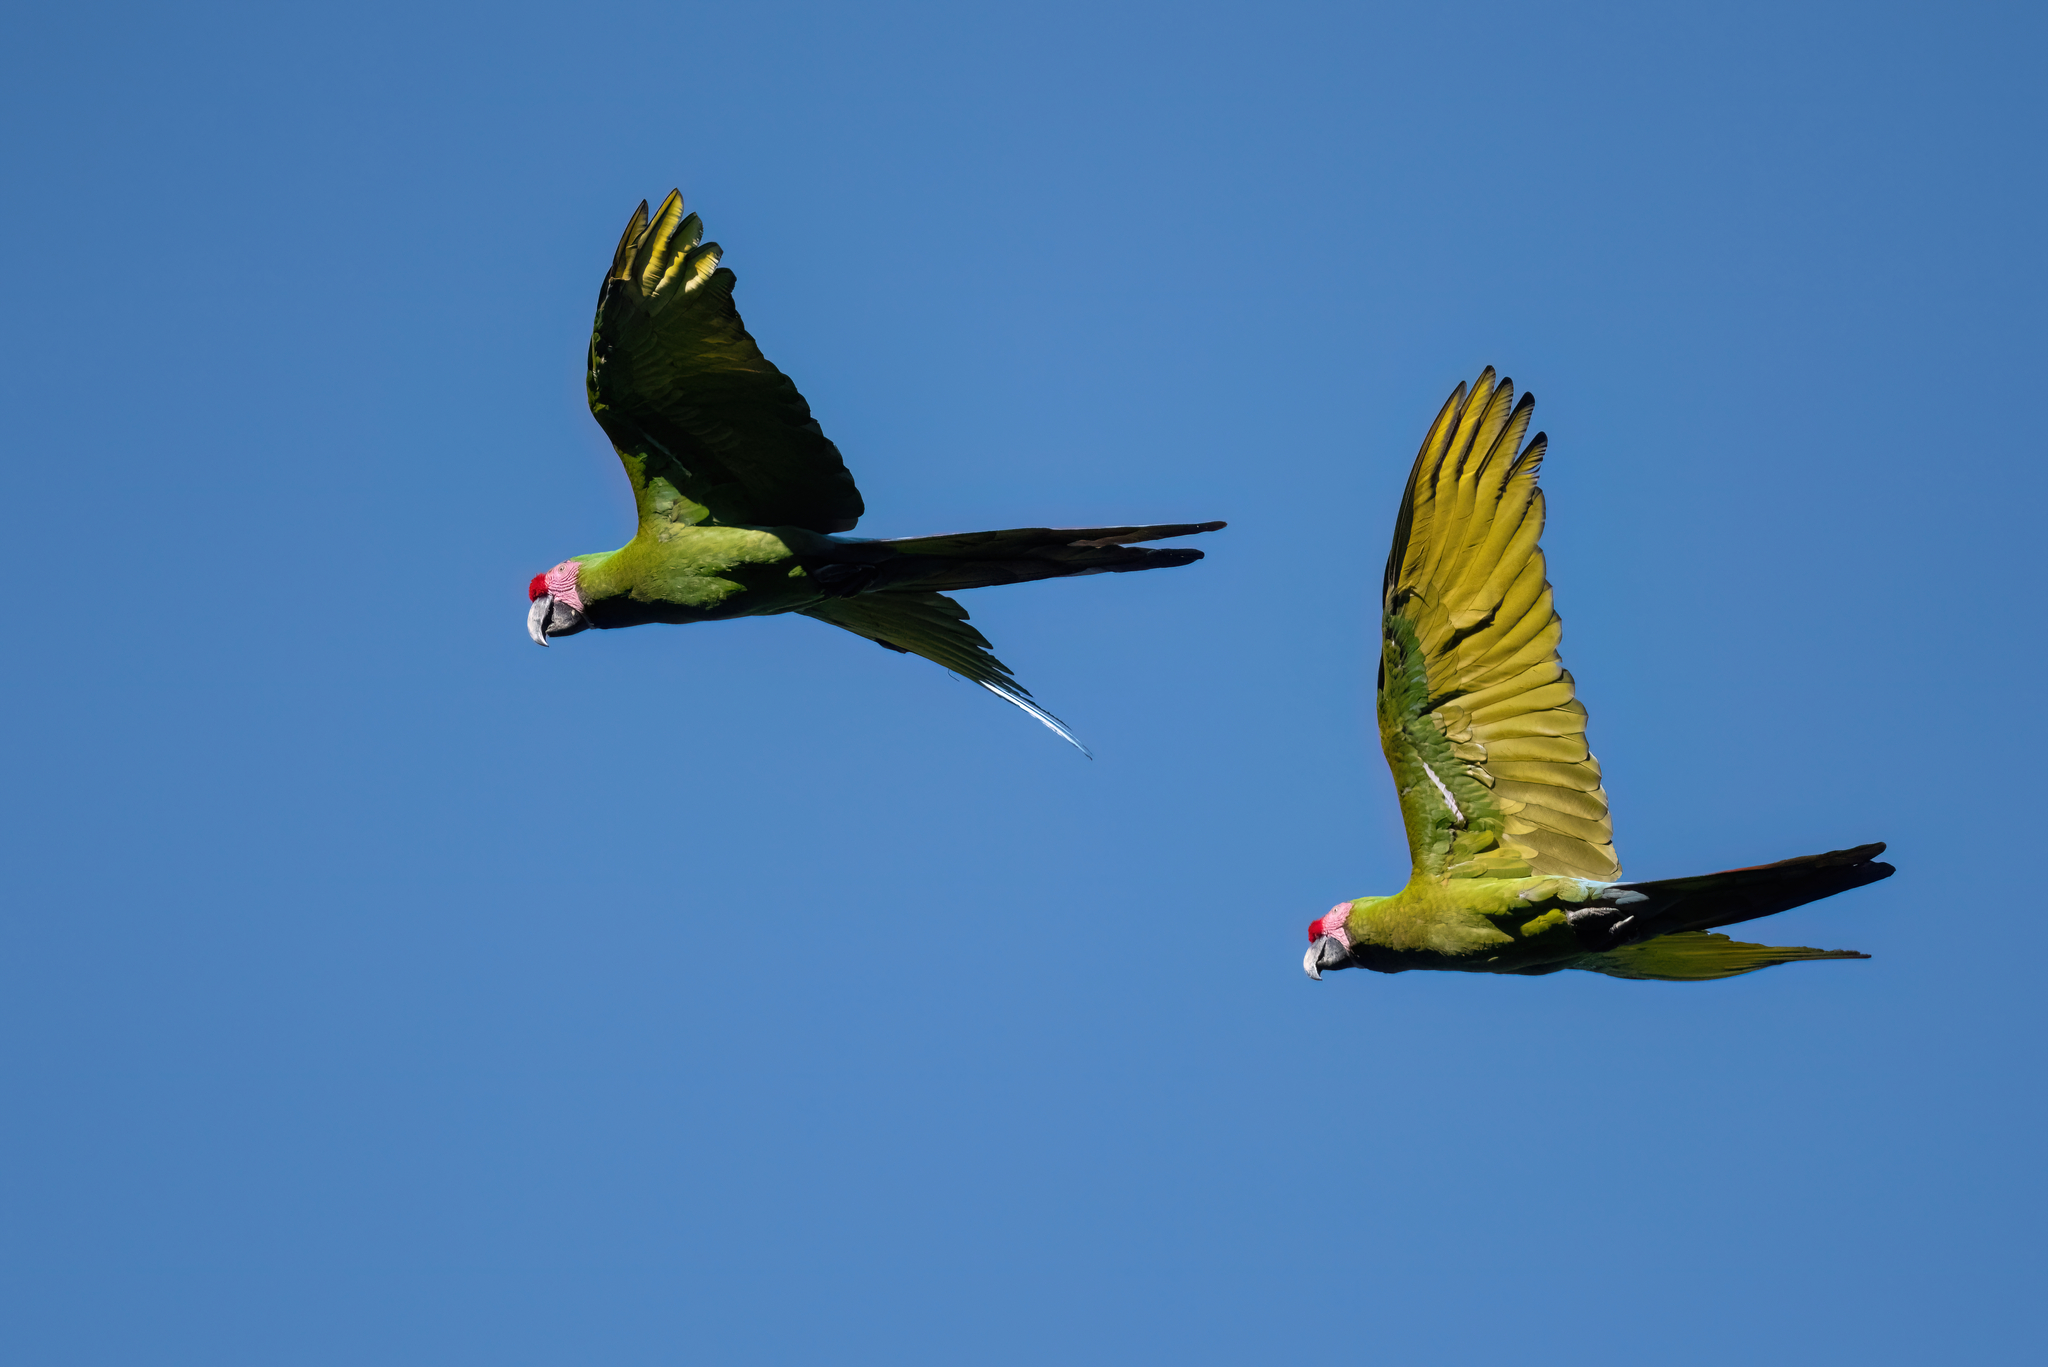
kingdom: Animalia
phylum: Chordata
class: Aves
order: Psittaciformes
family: Psittacidae
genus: Ara
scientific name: Ara militaris
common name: Military macaw
